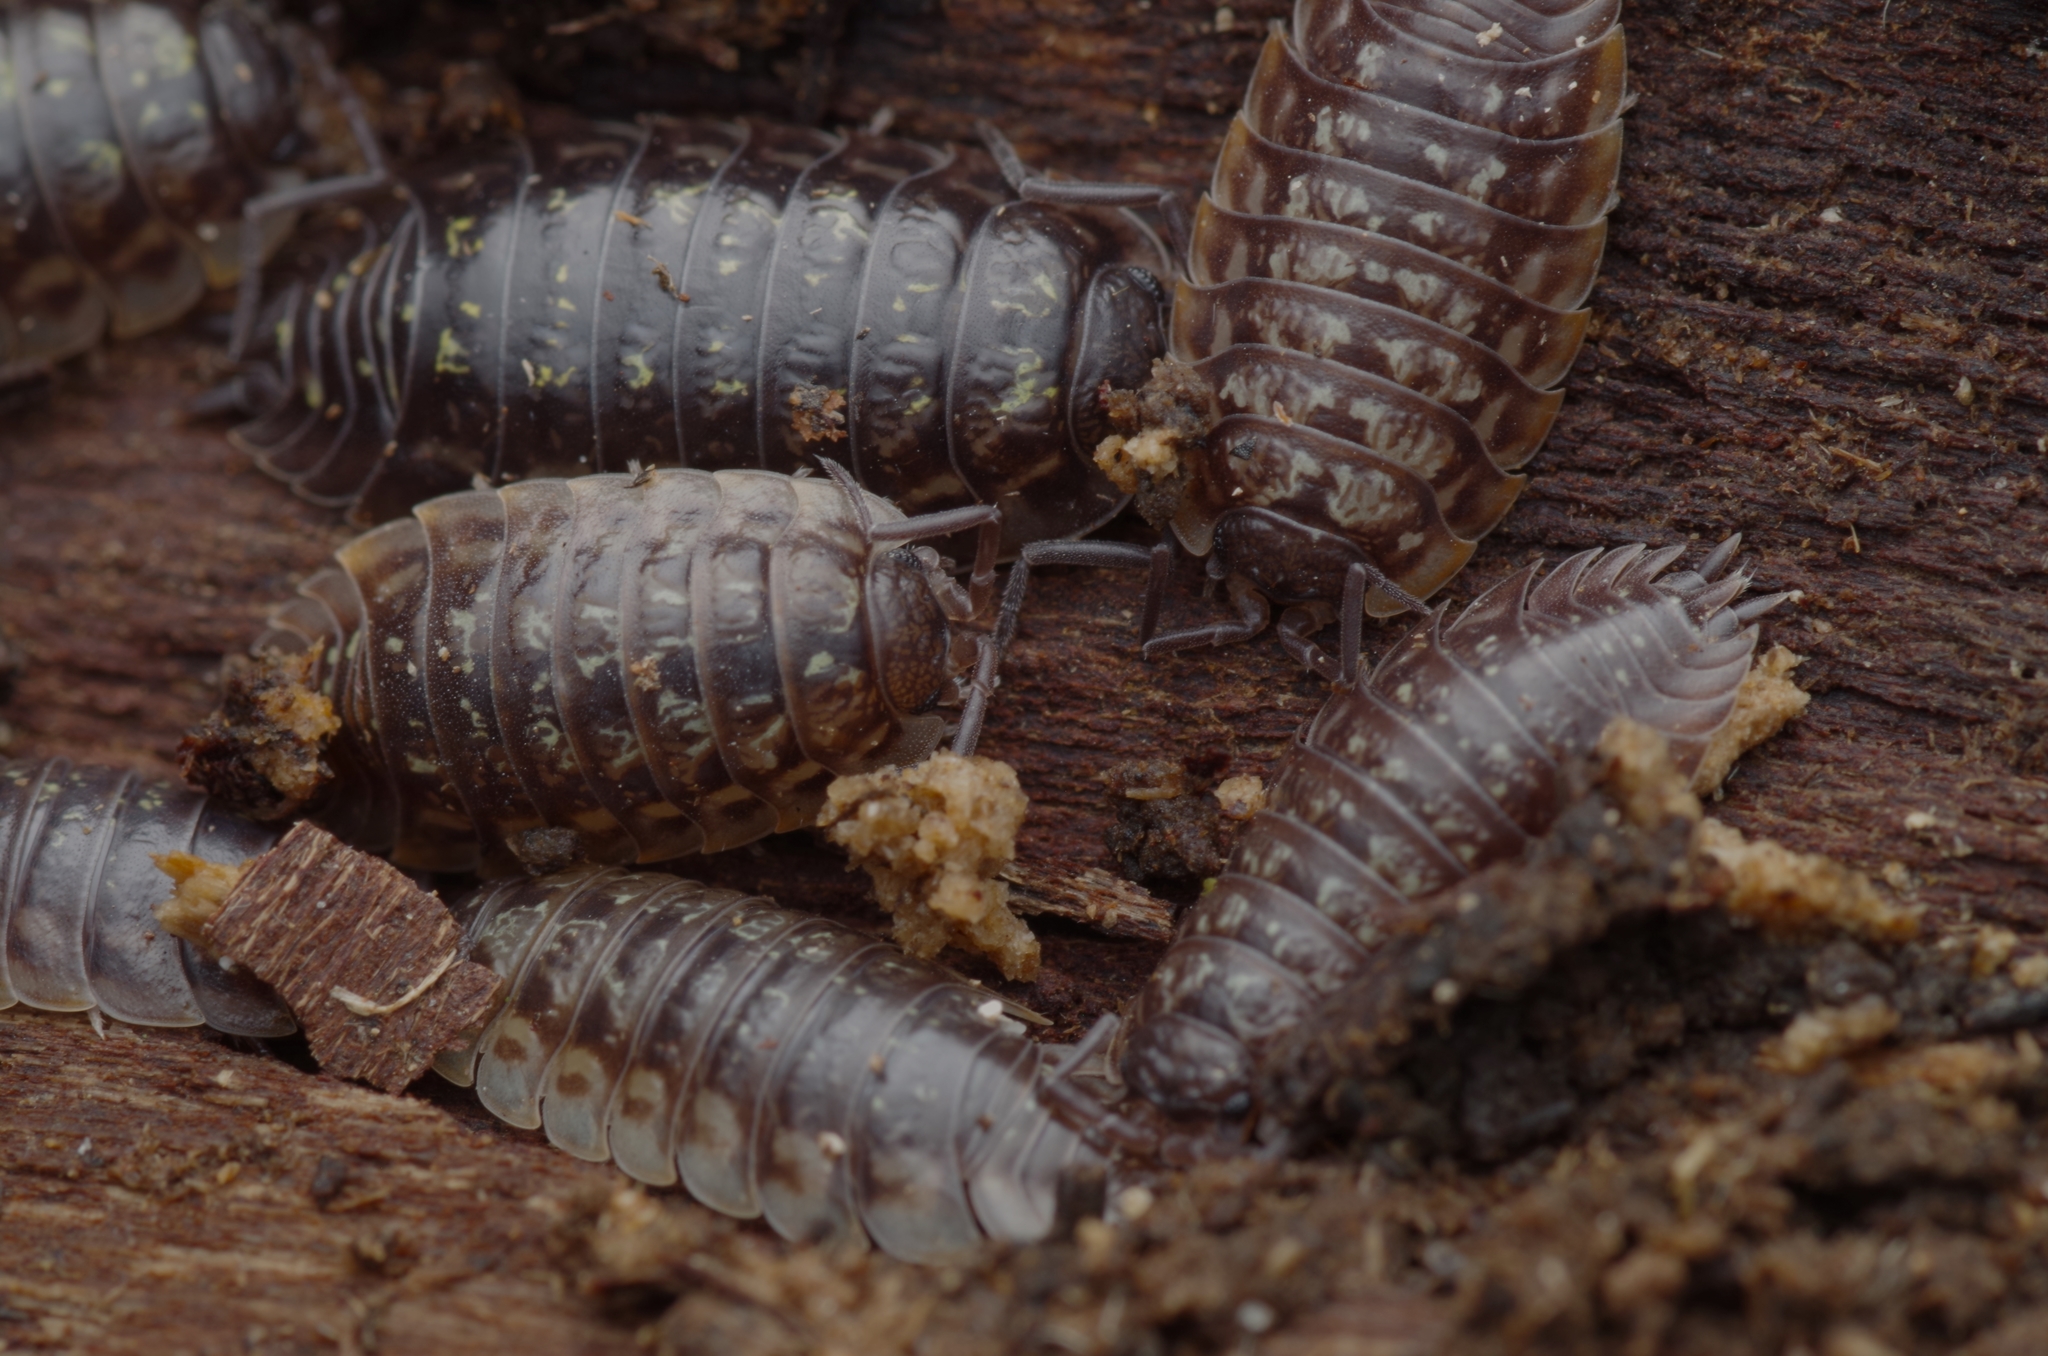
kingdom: Animalia
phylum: Arthropoda
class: Malacostraca
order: Isopoda
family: Oniscidae
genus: Oniscus
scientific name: Oniscus asellus
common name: Common shiny woodlouse
